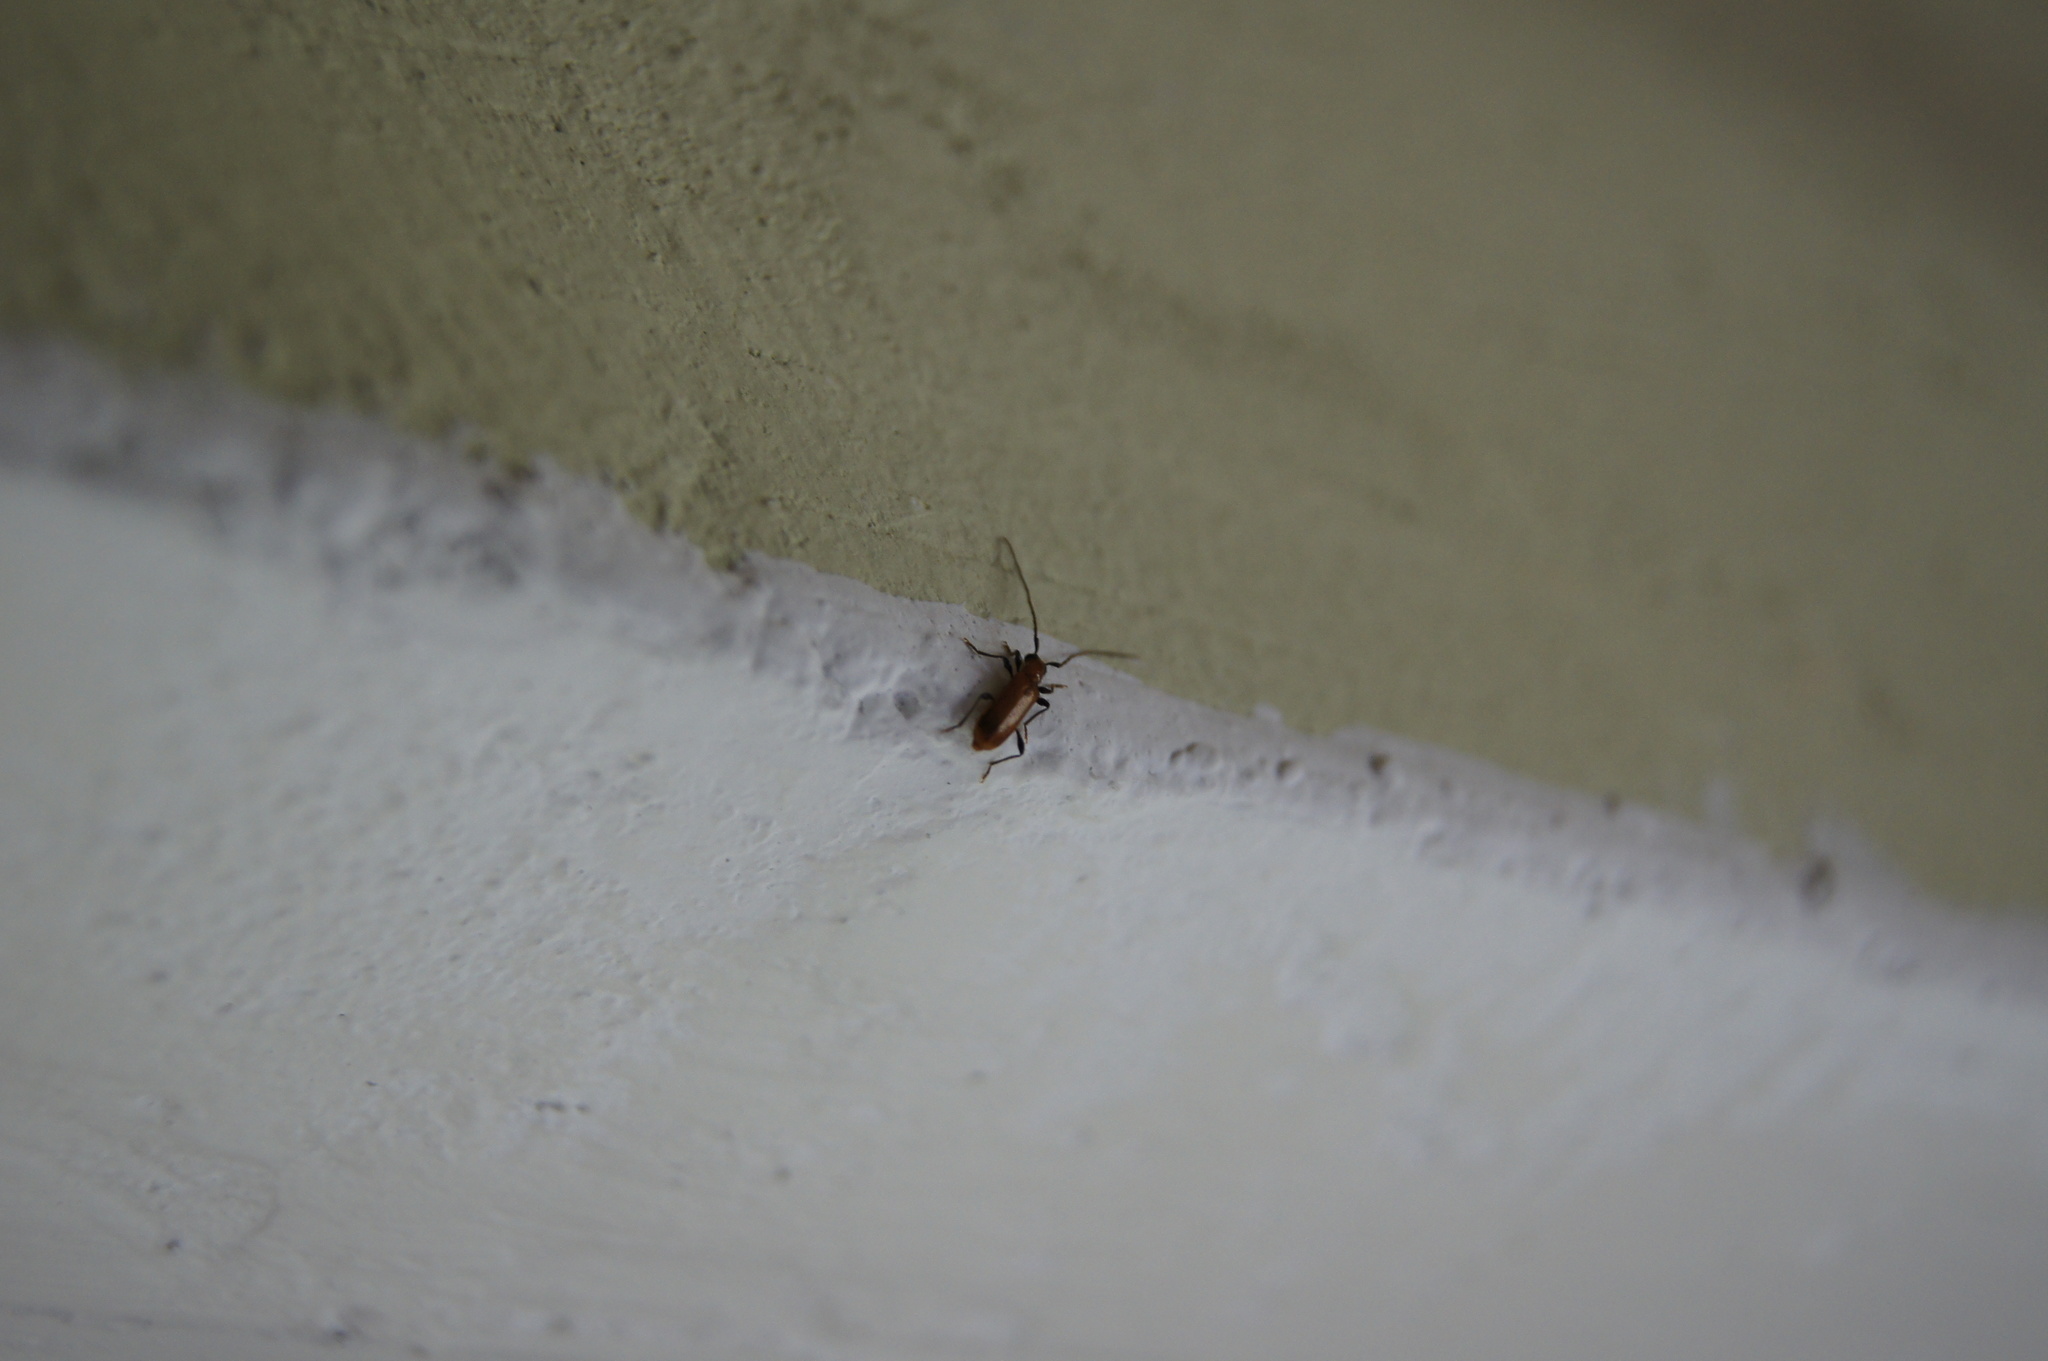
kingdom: Animalia
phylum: Arthropoda
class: Insecta
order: Coleoptera
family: Cerambycidae
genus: Obrium
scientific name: Obrium cantharinum
